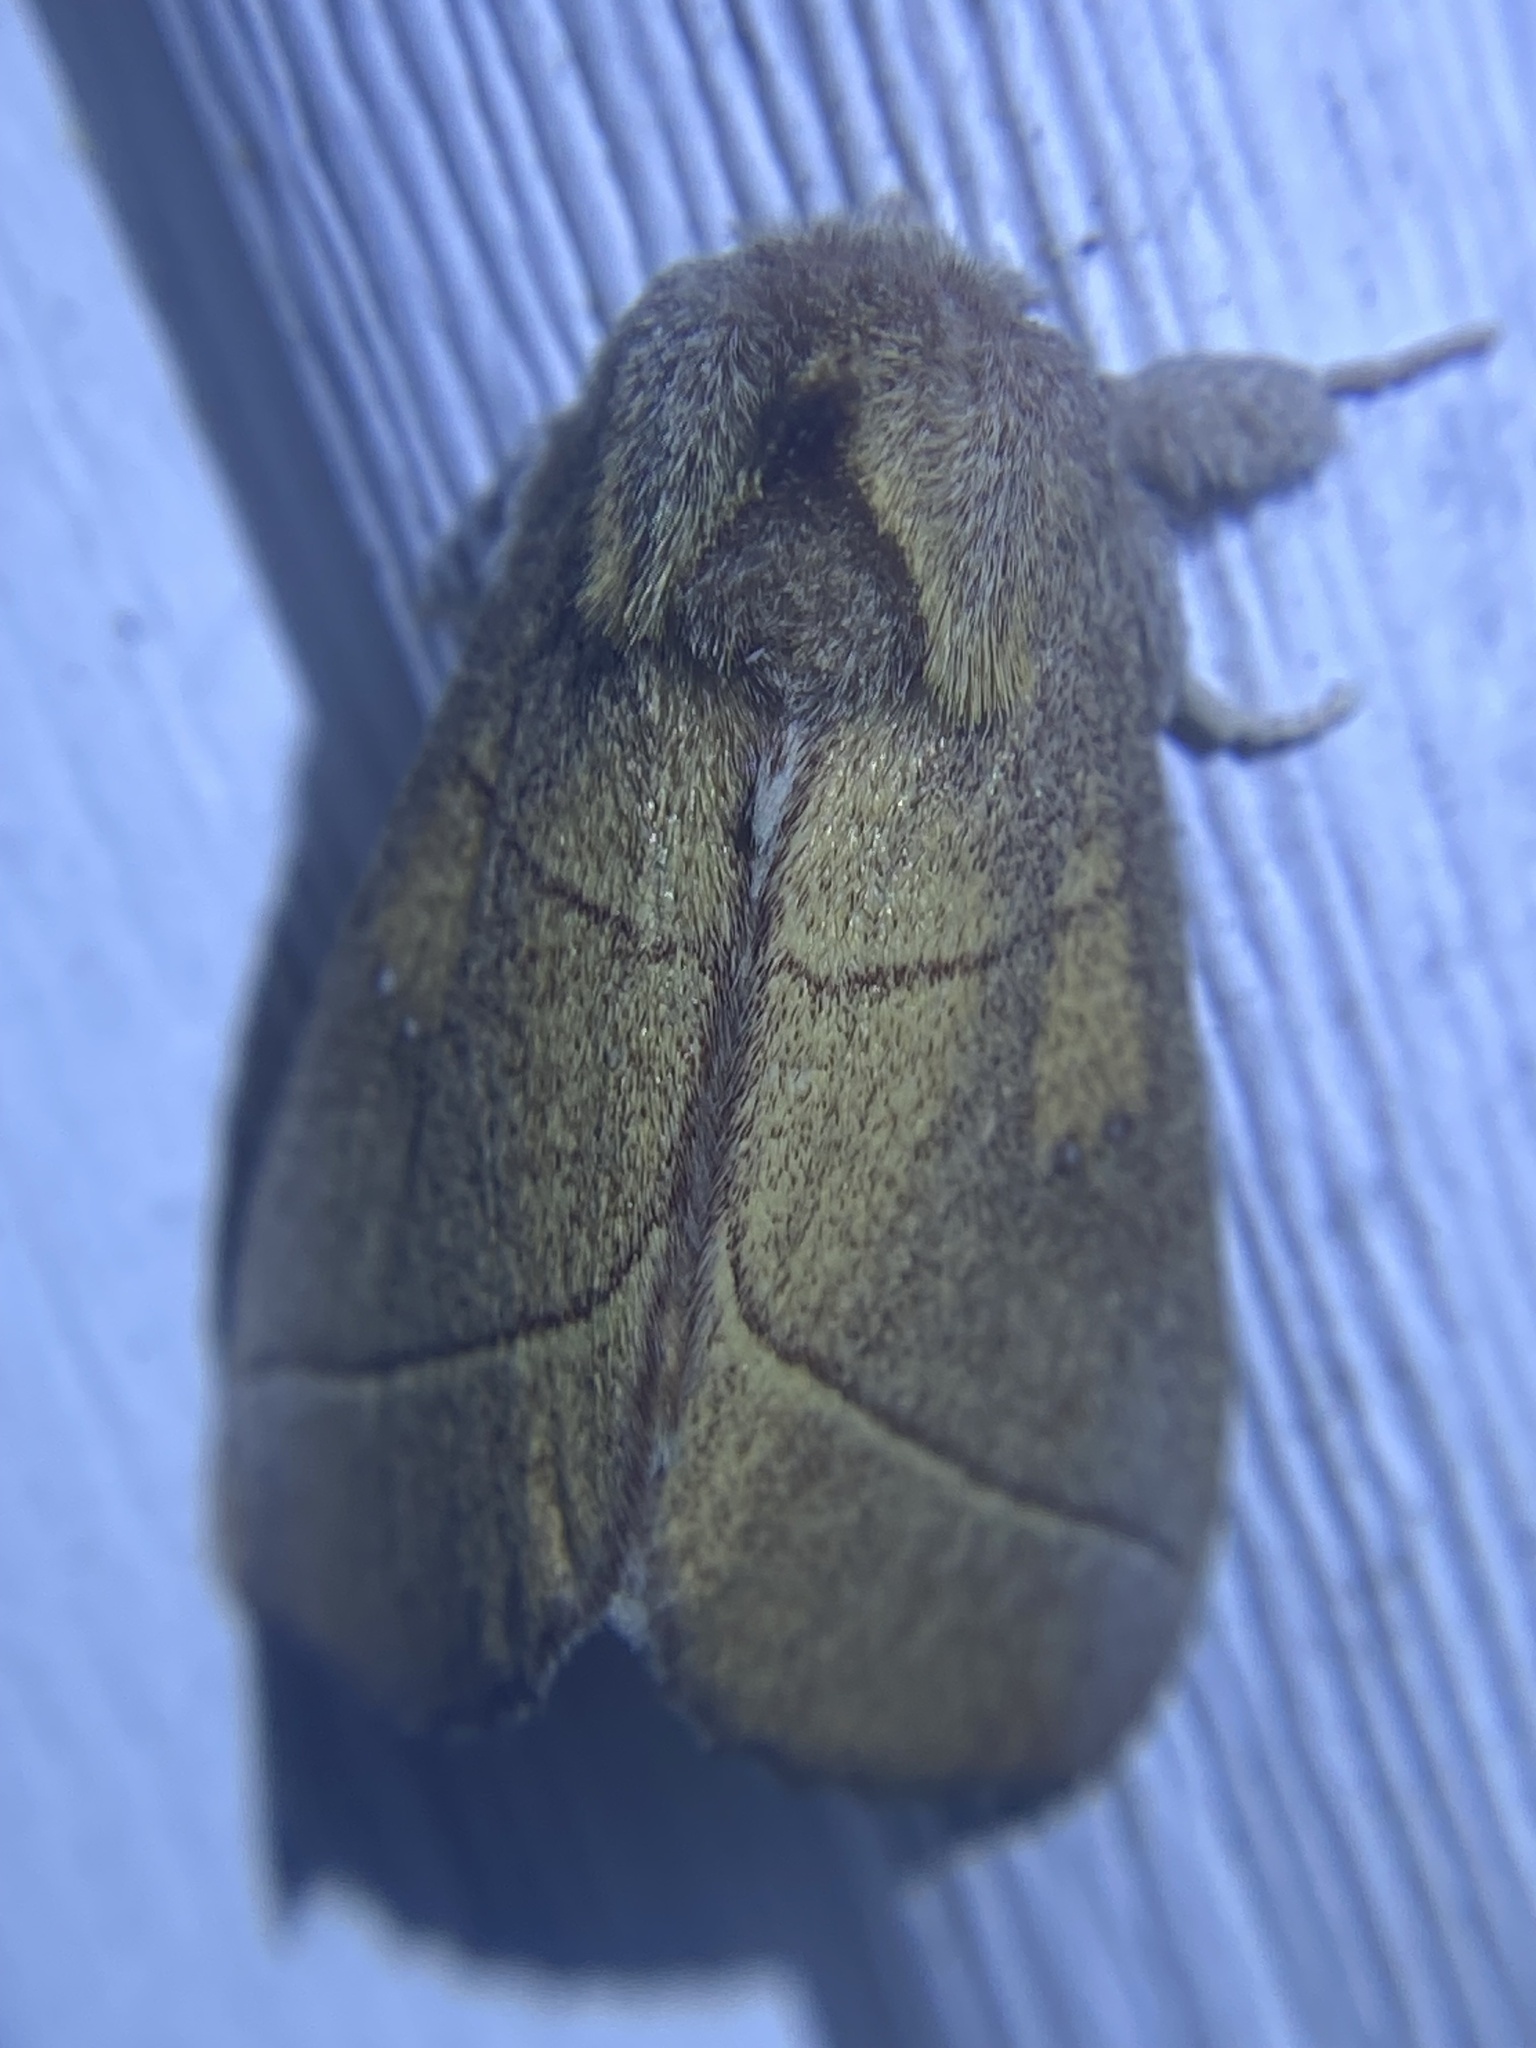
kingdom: Animalia
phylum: Arthropoda
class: Insecta
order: Lepidoptera
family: Notodontidae
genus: Nadata
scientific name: Nadata gibbosa
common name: White-dotted prominent
